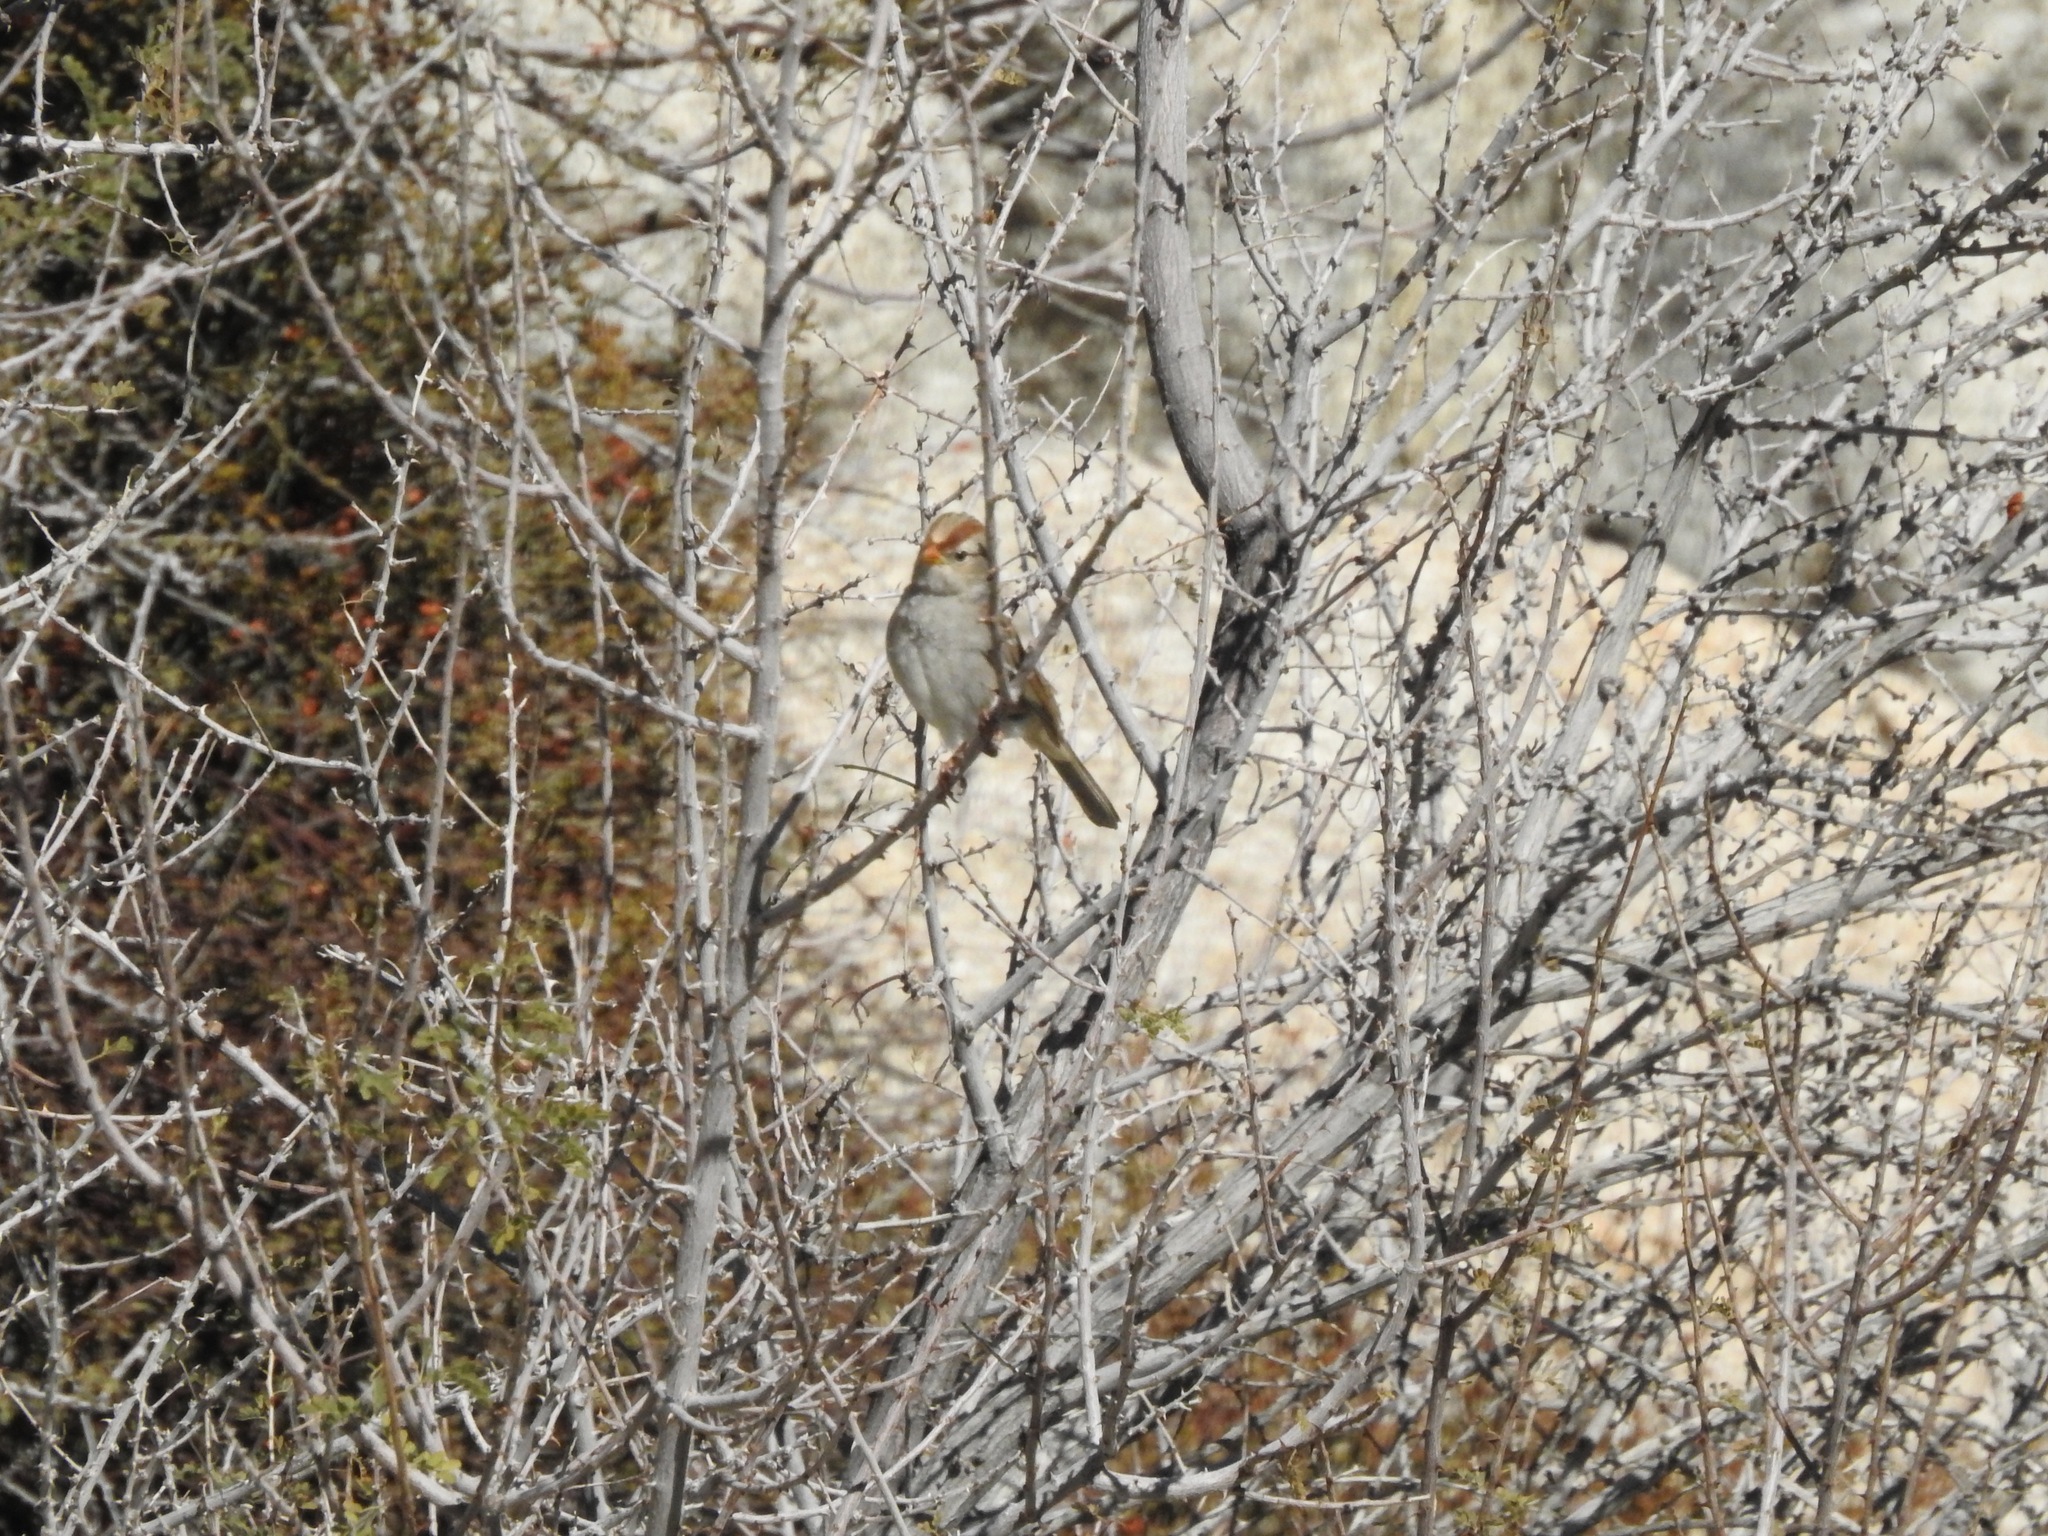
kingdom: Animalia
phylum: Chordata
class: Aves
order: Passeriformes
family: Passerellidae
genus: Zonotrichia
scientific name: Zonotrichia leucophrys
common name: White-crowned sparrow
